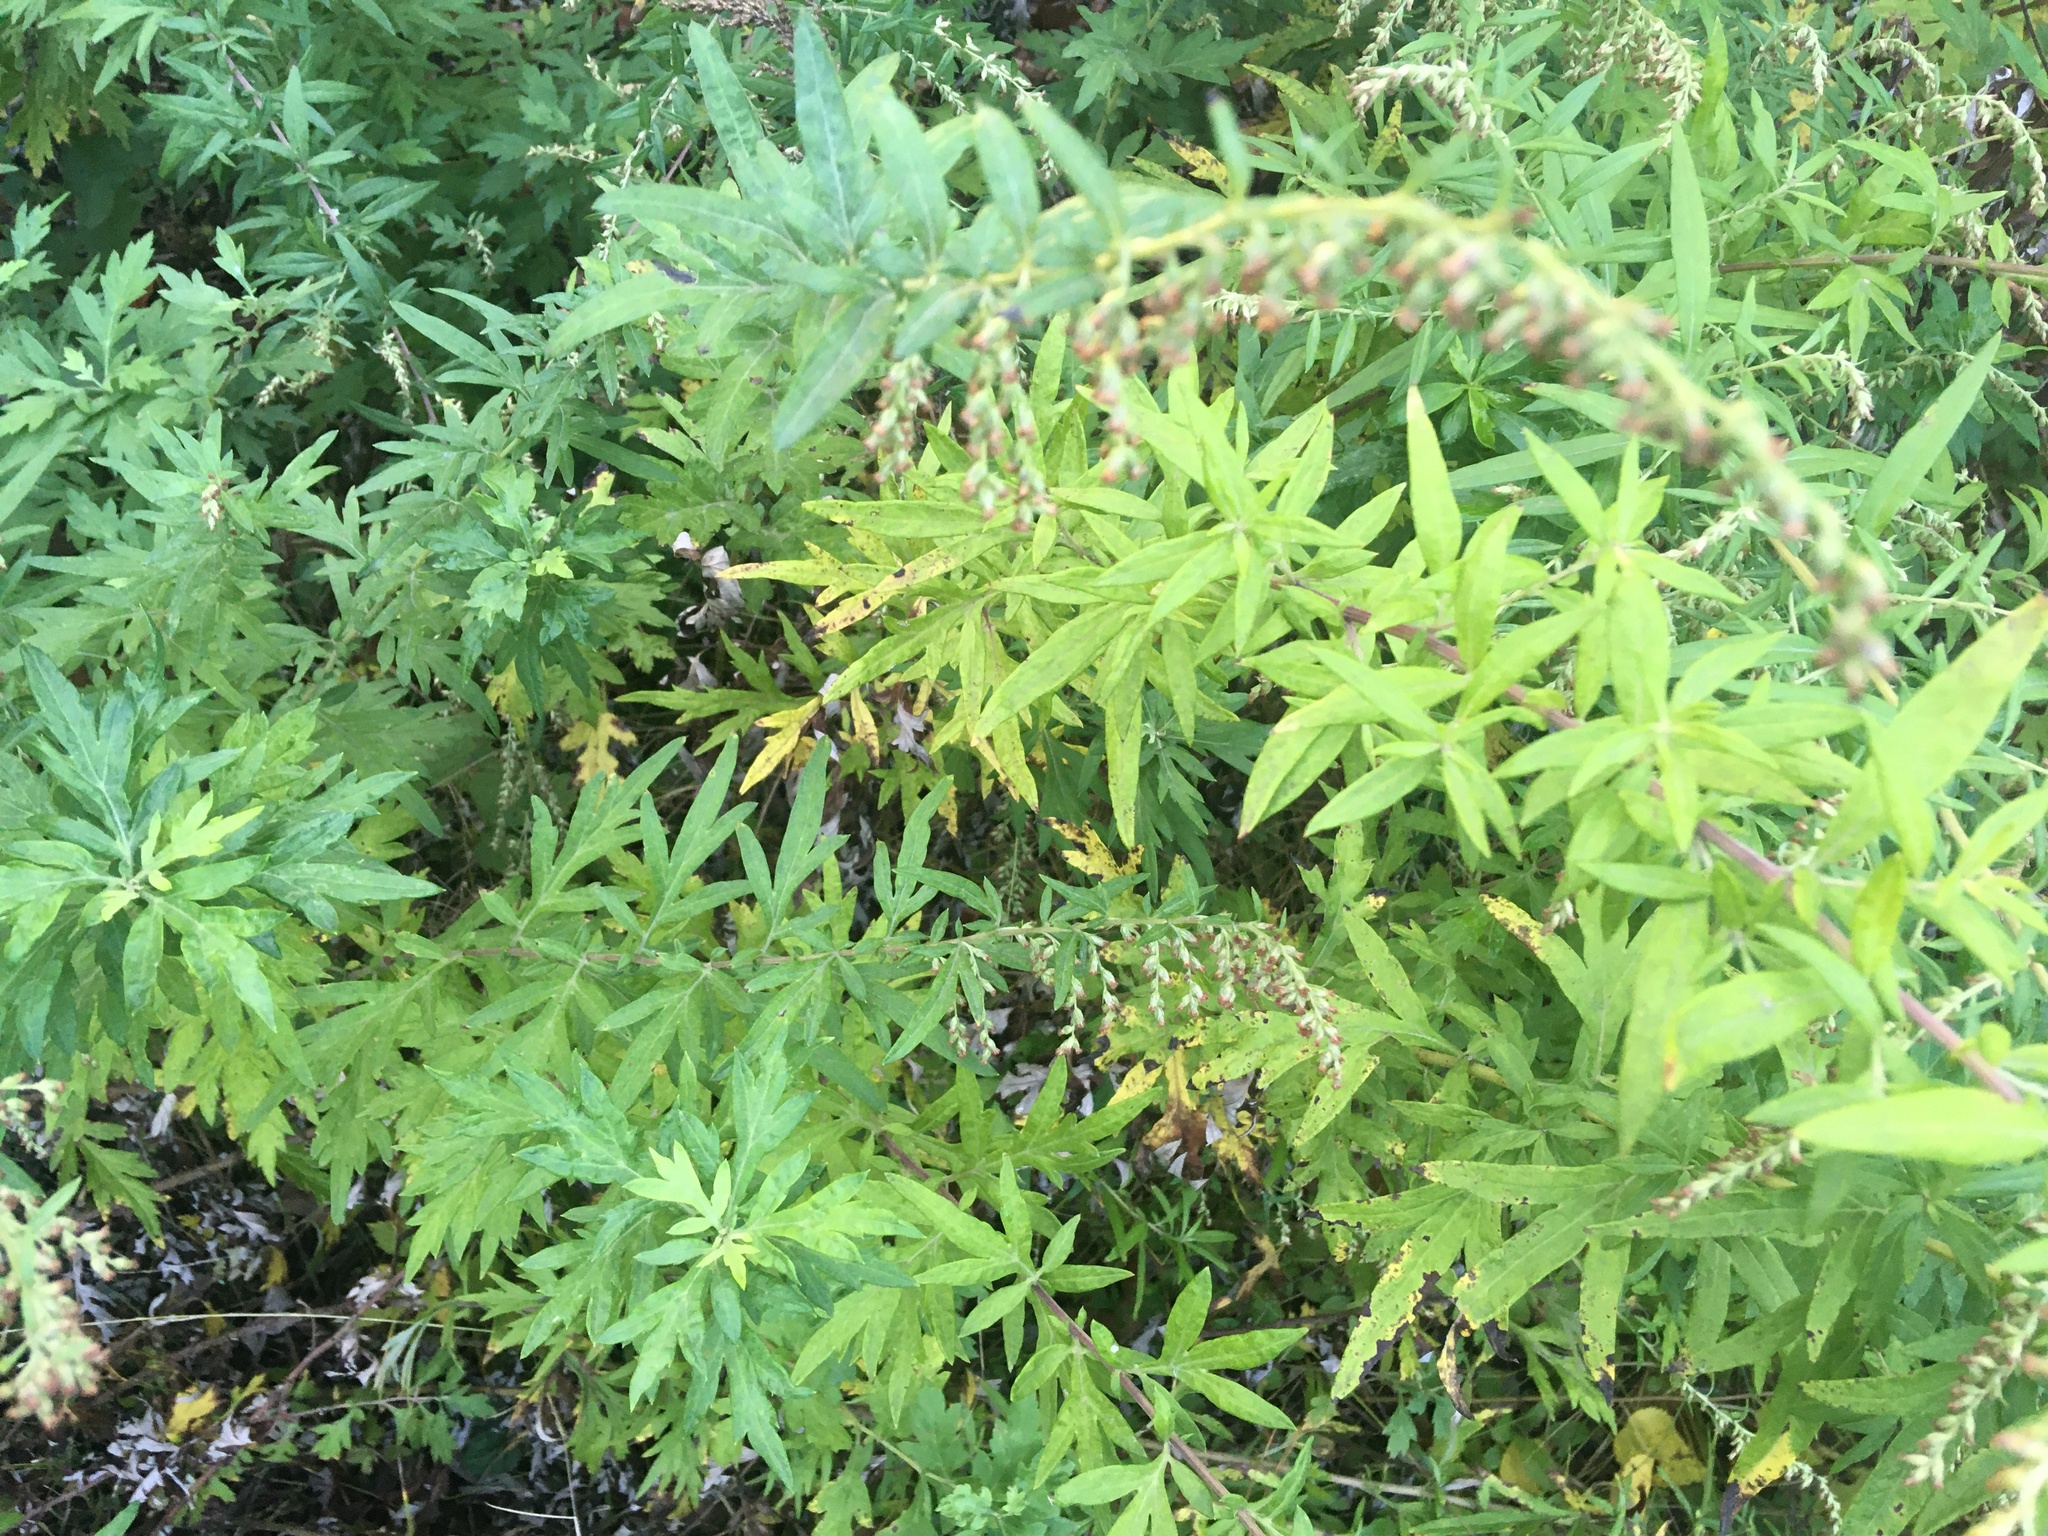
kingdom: Plantae
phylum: Tracheophyta
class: Magnoliopsida
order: Asterales
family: Asteraceae
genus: Artemisia
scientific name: Artemisia vulgaris
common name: Mugwort
